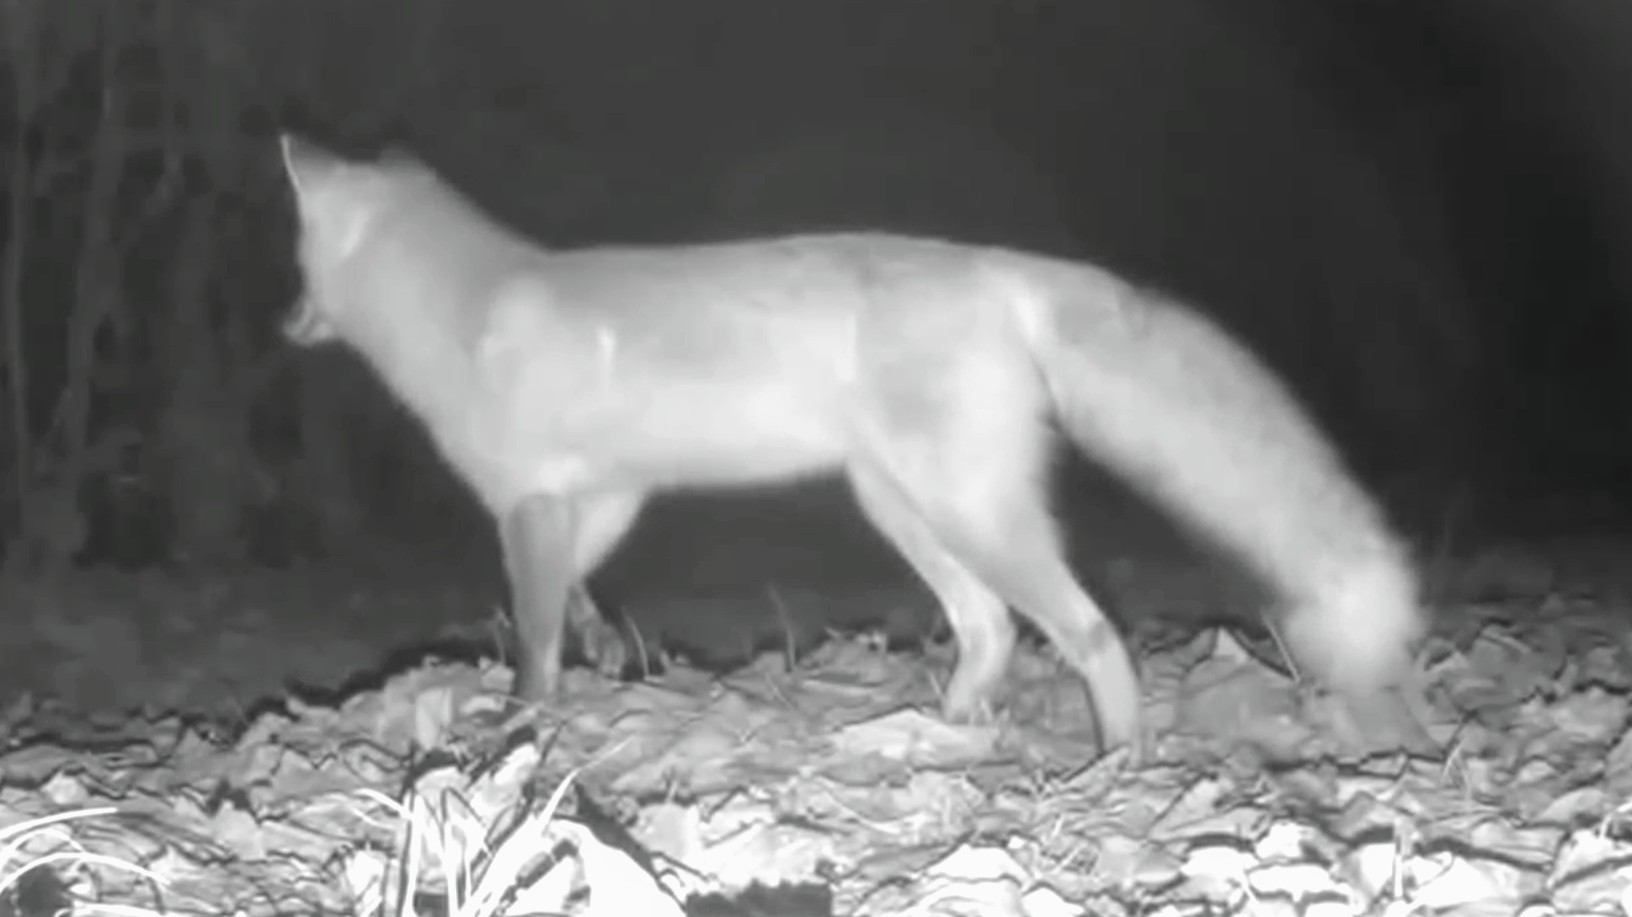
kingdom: Animalia
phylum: Chordata
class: Mammalia
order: Carnivora
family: Canidae
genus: Vulpes
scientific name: Vulpes vulpes
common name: Red fox
